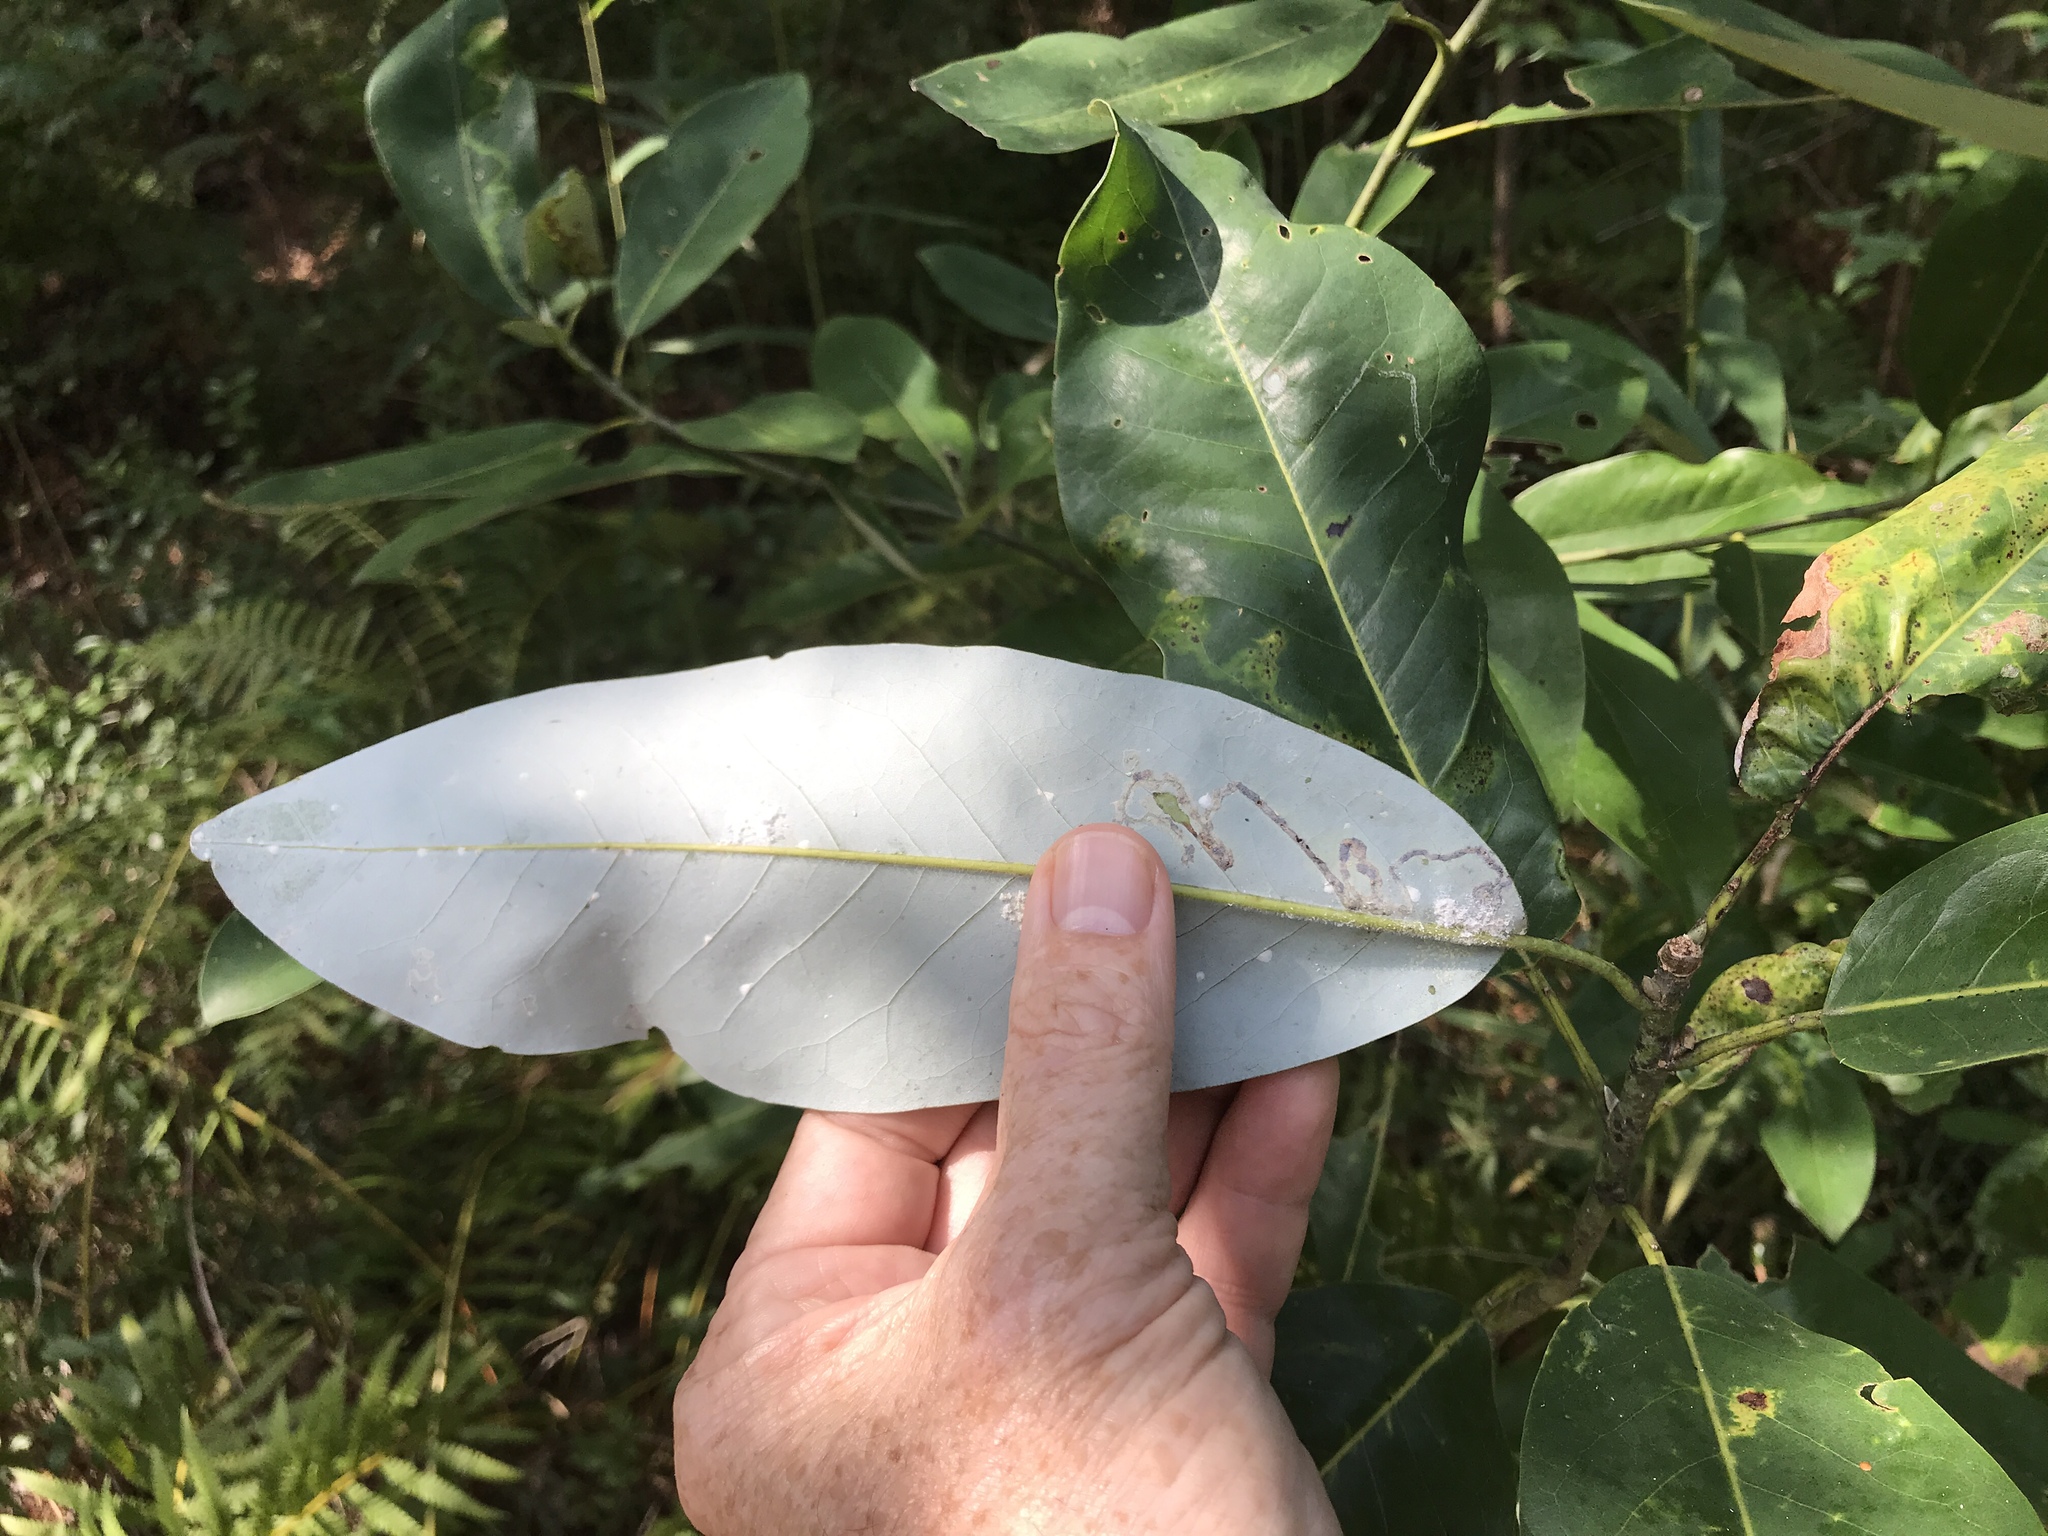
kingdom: Plantae
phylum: Tracheophyta
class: Magnoliopsida
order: Magnoliales
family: Magnoliaceae
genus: Magnolia
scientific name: Magnolia virginiana
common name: Swamp bay
